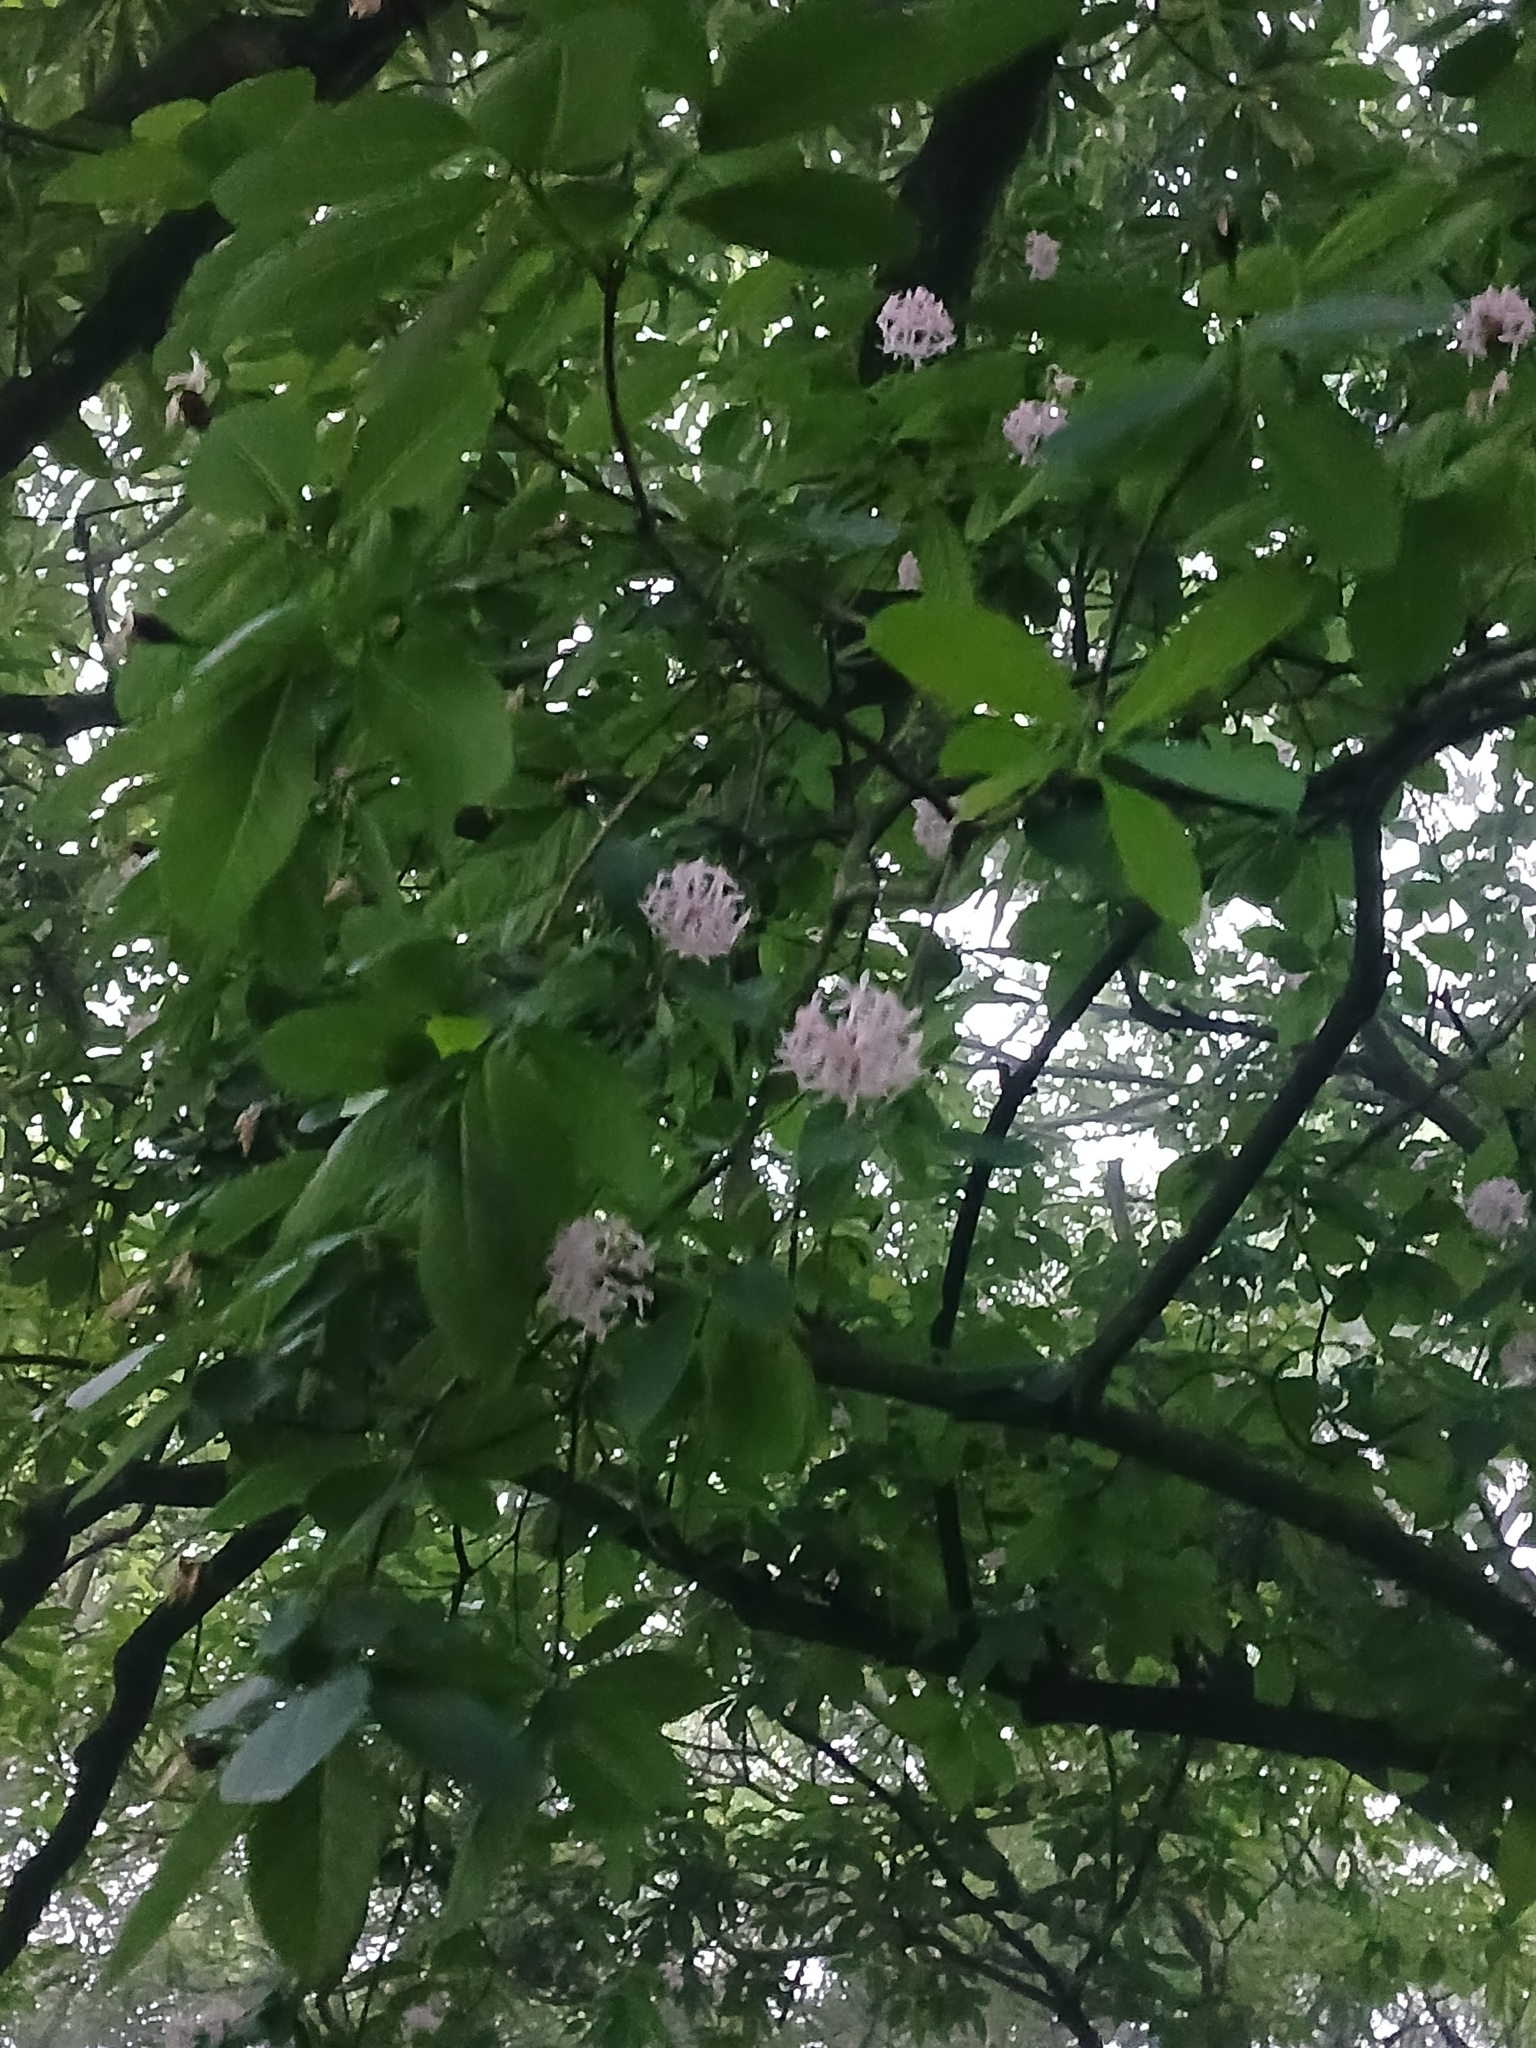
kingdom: Plantae
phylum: Tracheophyta
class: Magnoliopsida
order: Malvales
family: Thymelaeaceae
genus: Dais
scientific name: Dais cotinifolia
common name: Pompon tree
